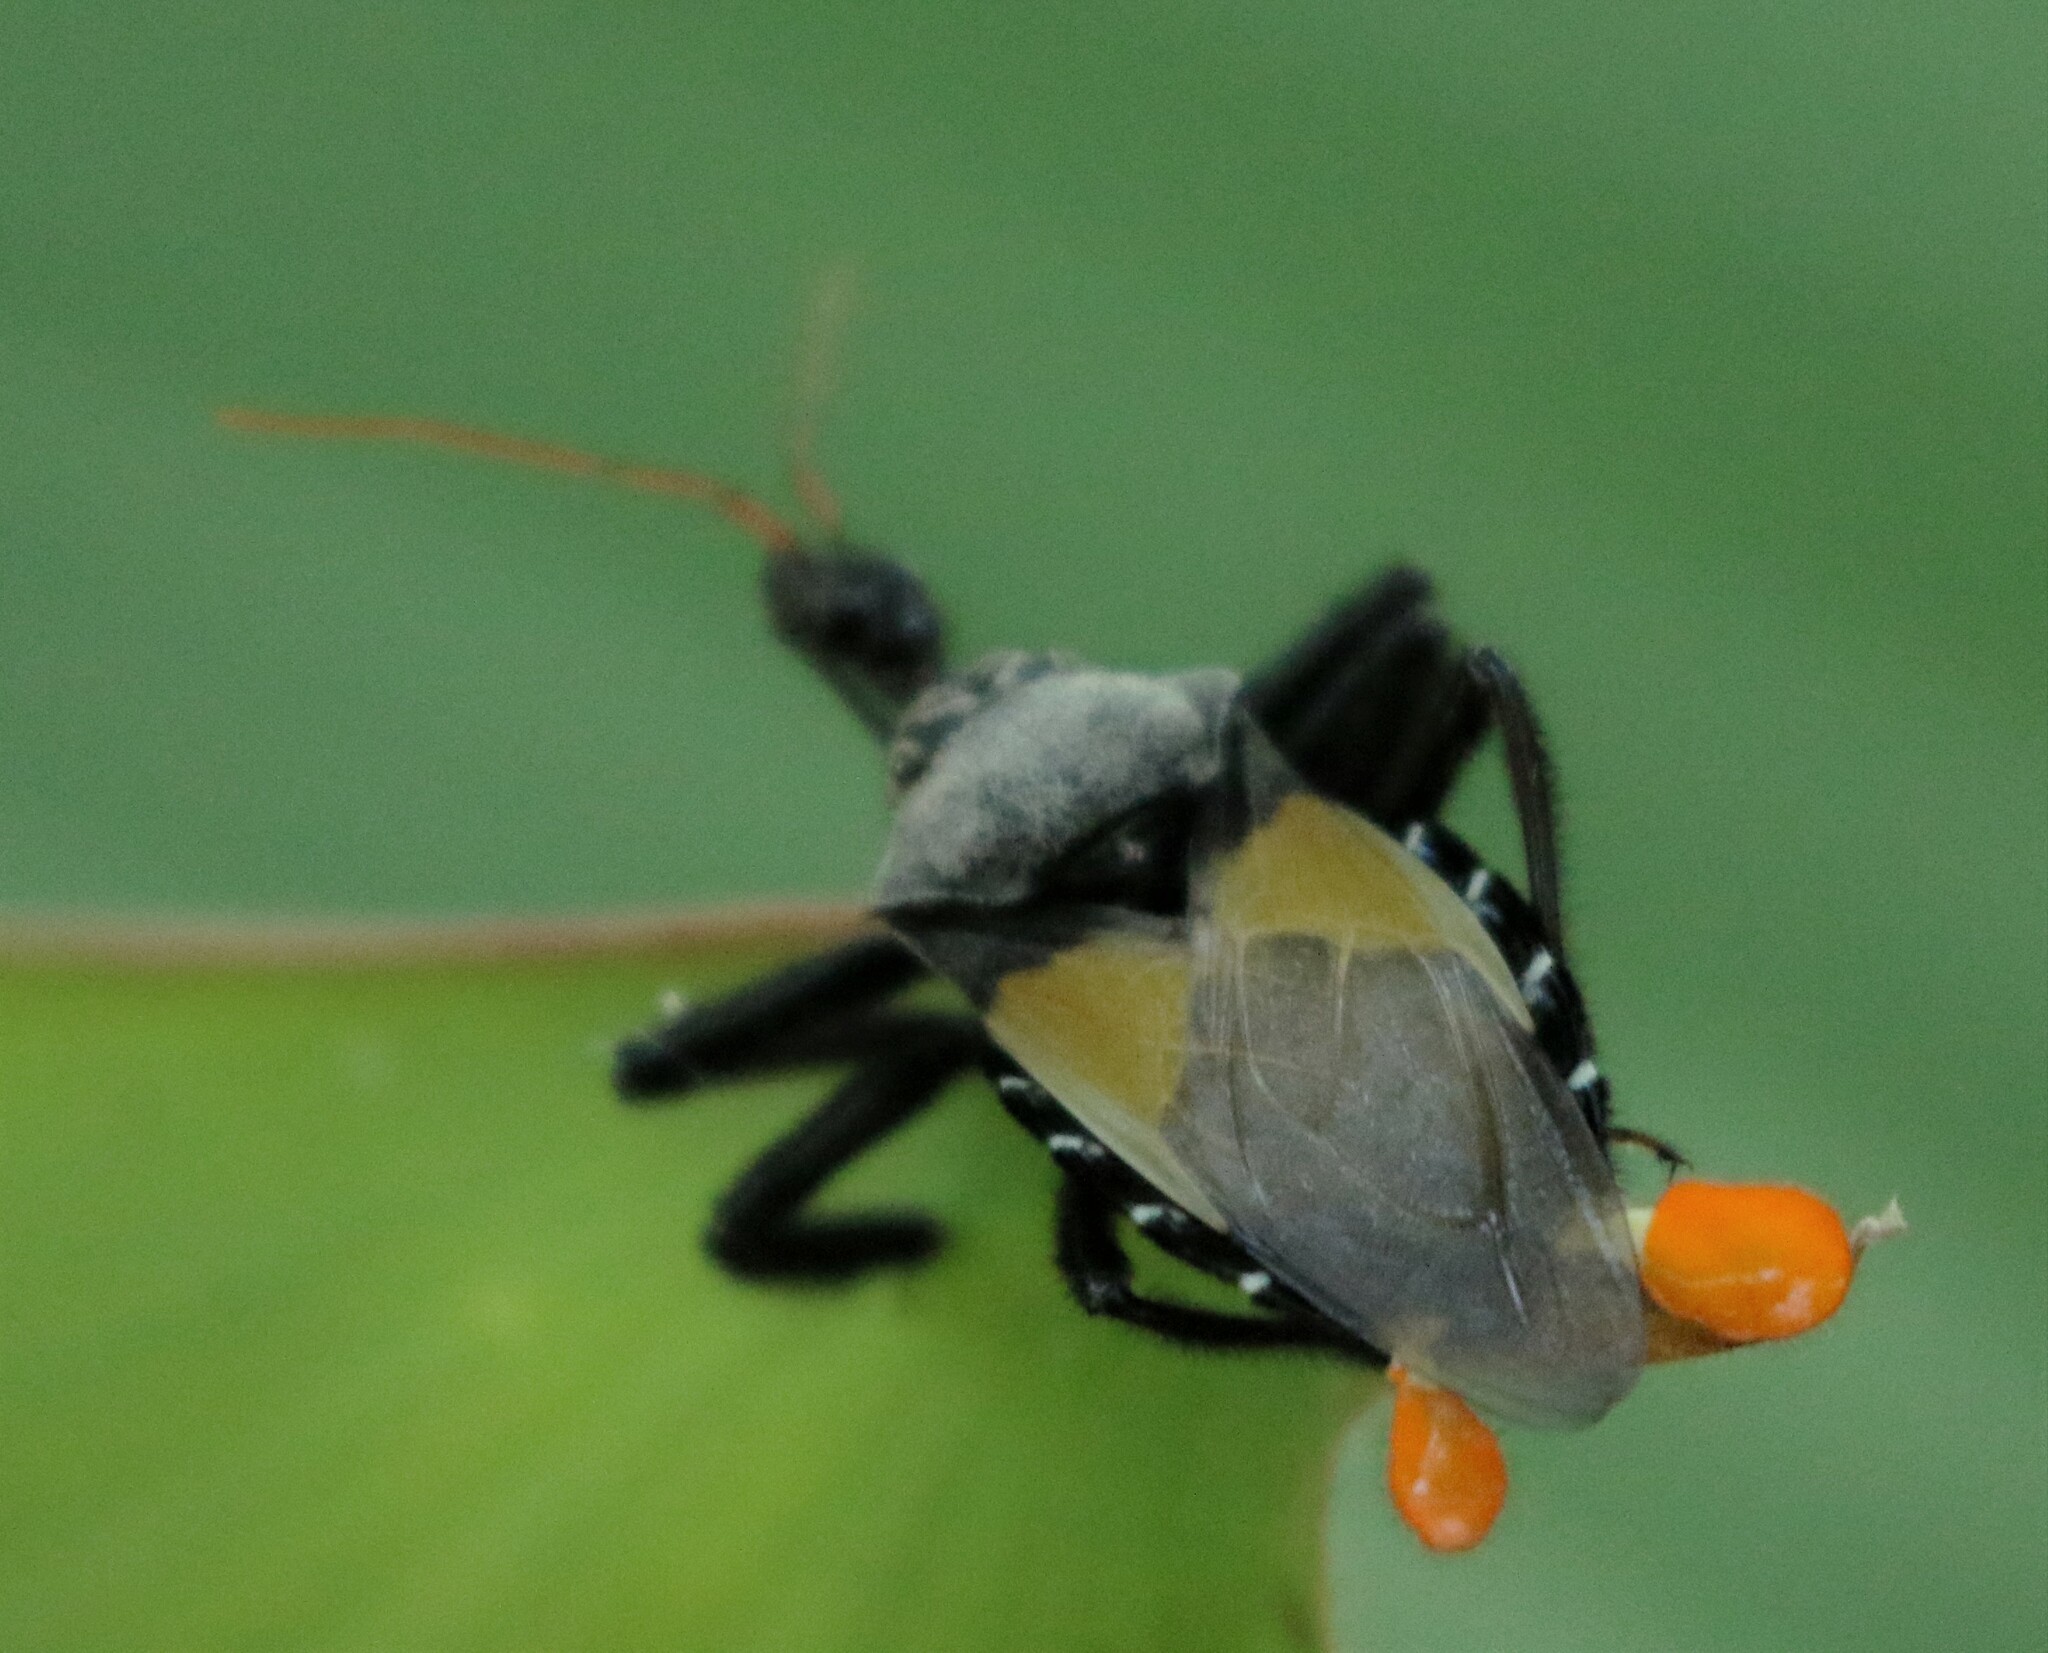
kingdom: Animalia
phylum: Arthropoda
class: Insecta
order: Hemiptera
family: Reduviidae
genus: Apiomerus
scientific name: Apiomerus vexillarius
